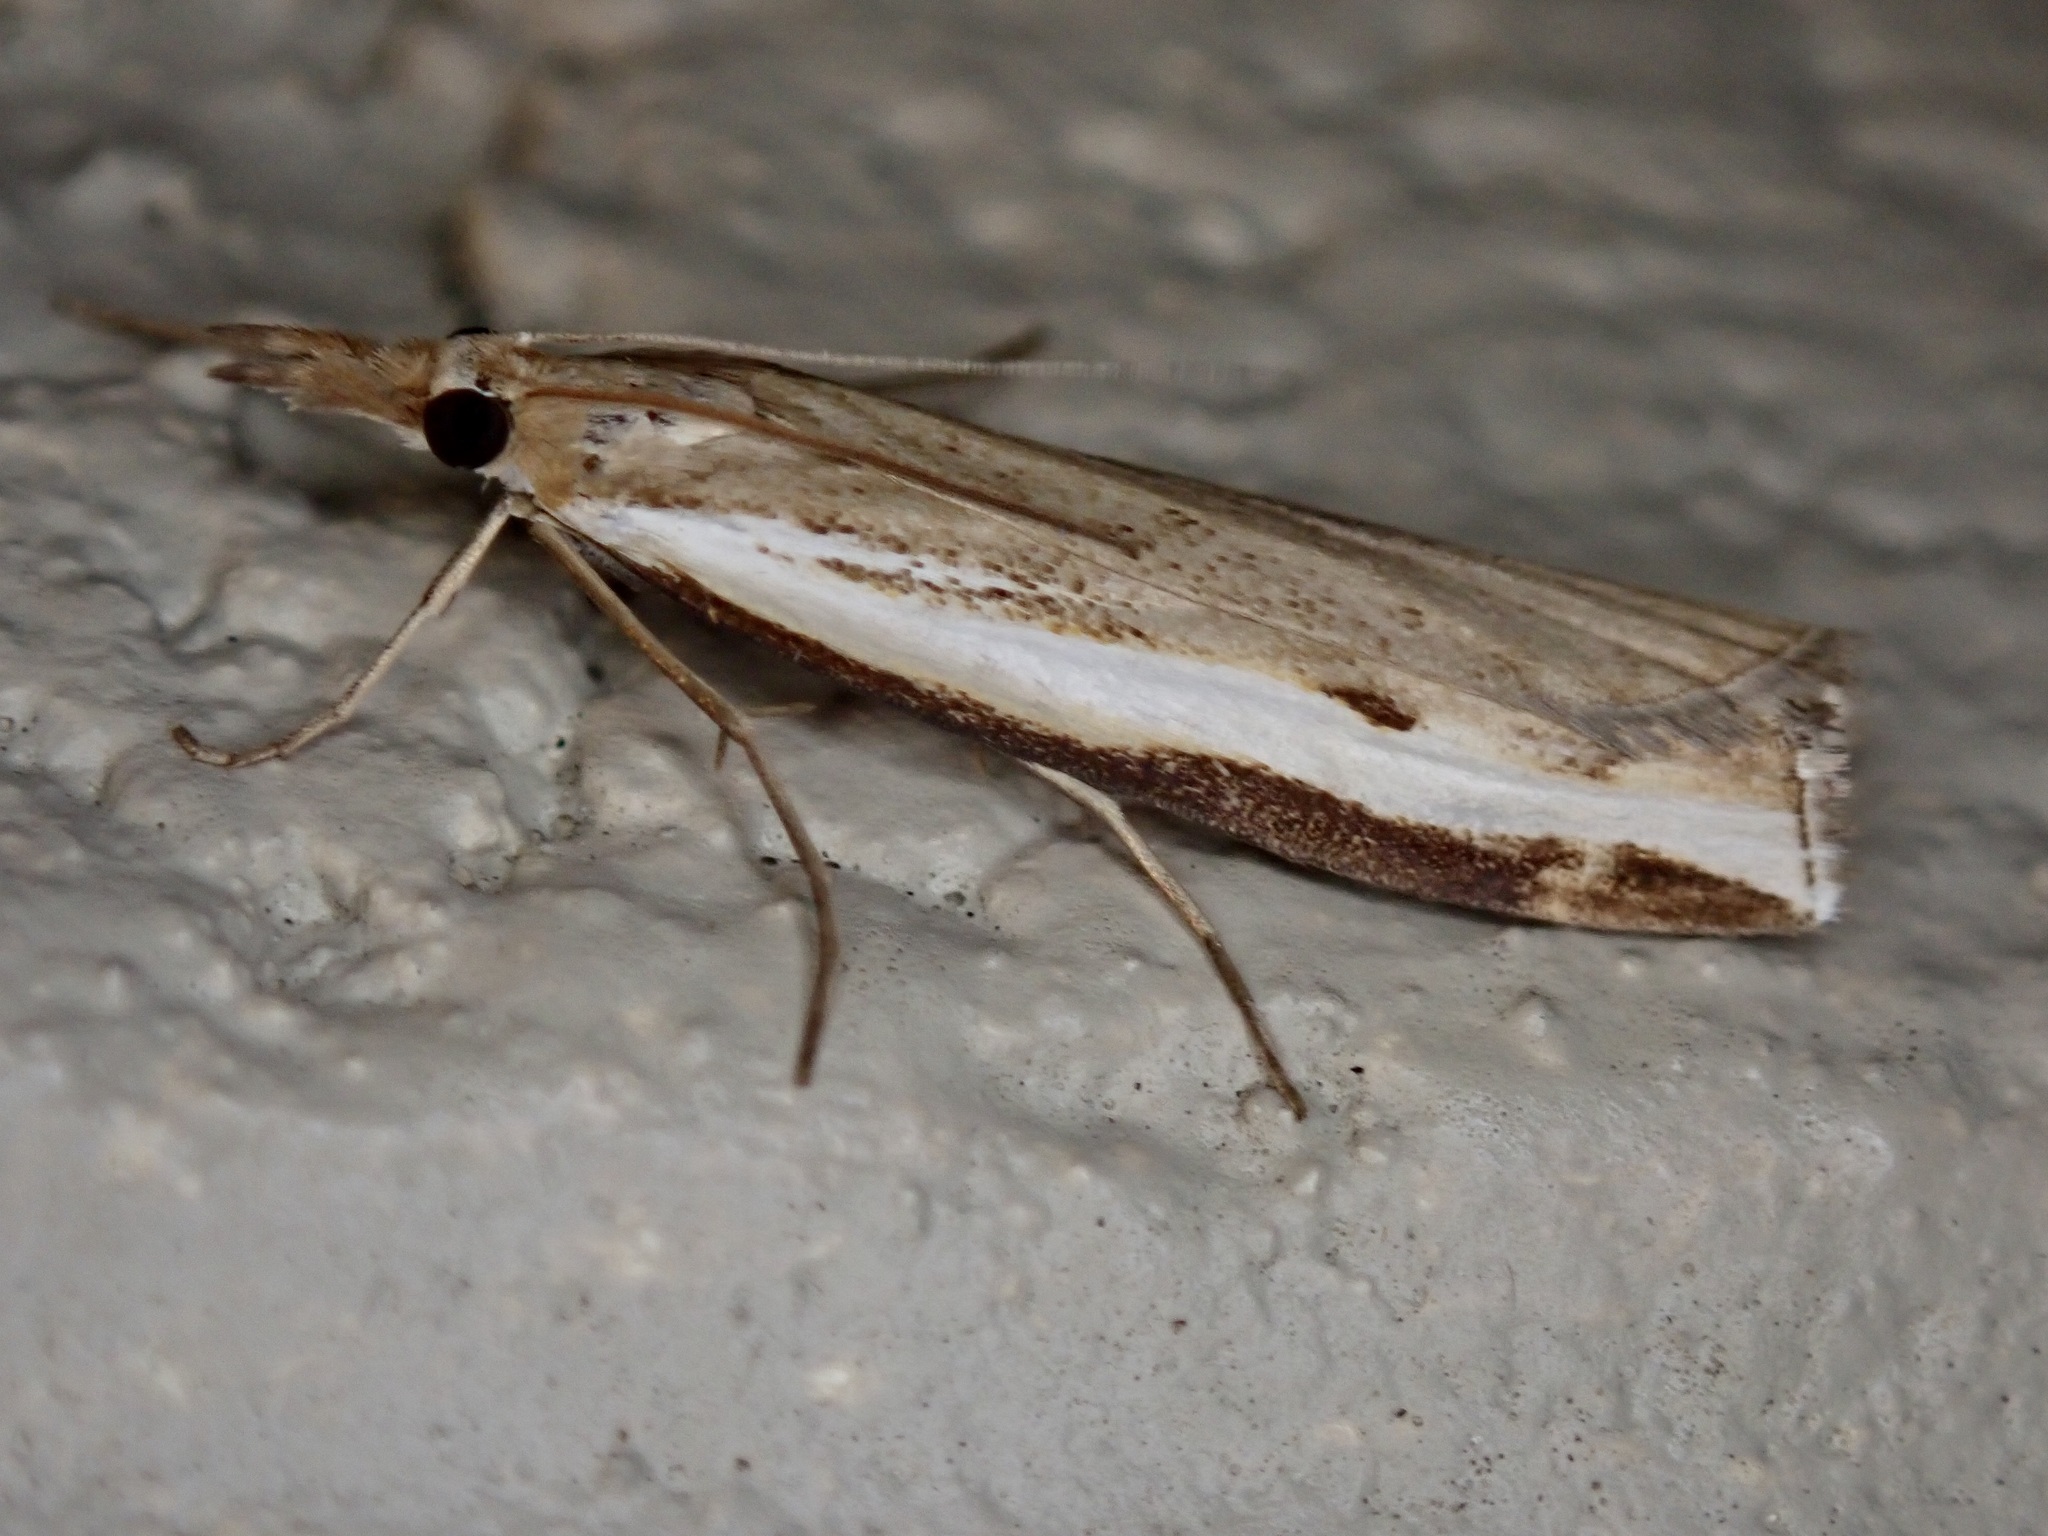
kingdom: Animalia
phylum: Arthropoda
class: Insecta
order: Lepidoptera
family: Crambidae
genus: Orocrambus
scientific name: Orocrambus flexuosellus
